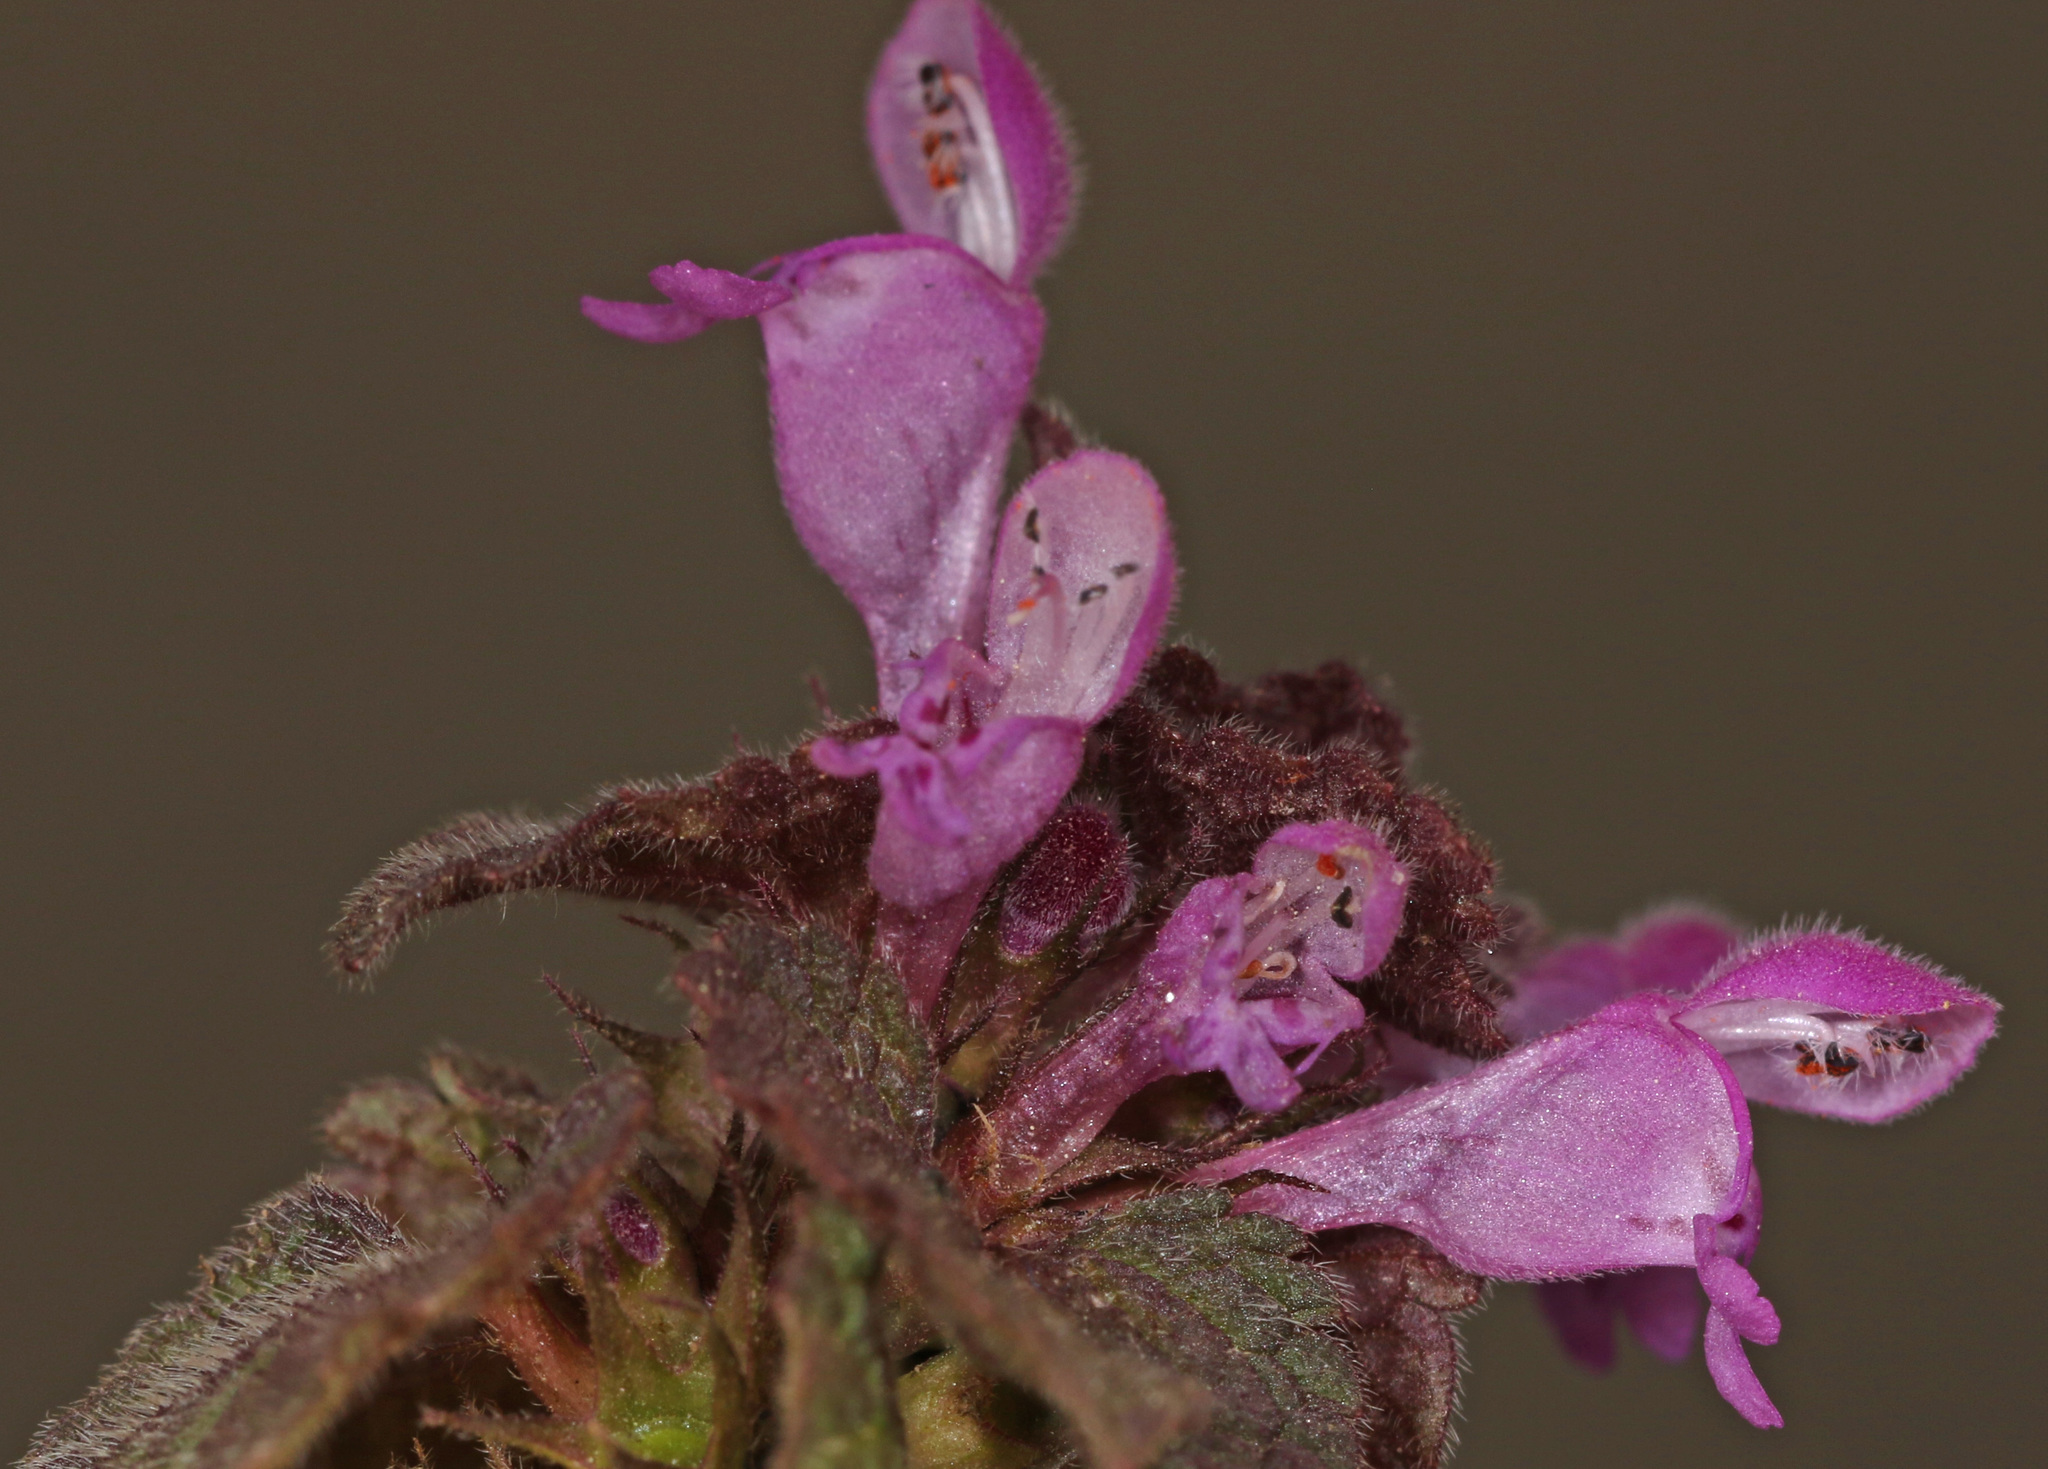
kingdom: Plantae
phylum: Tracheophyta
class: Magnoliopsida
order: Lamiales
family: Lamiaceae
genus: Lamium
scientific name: Lamium purpureum
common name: Red dead-nettle
